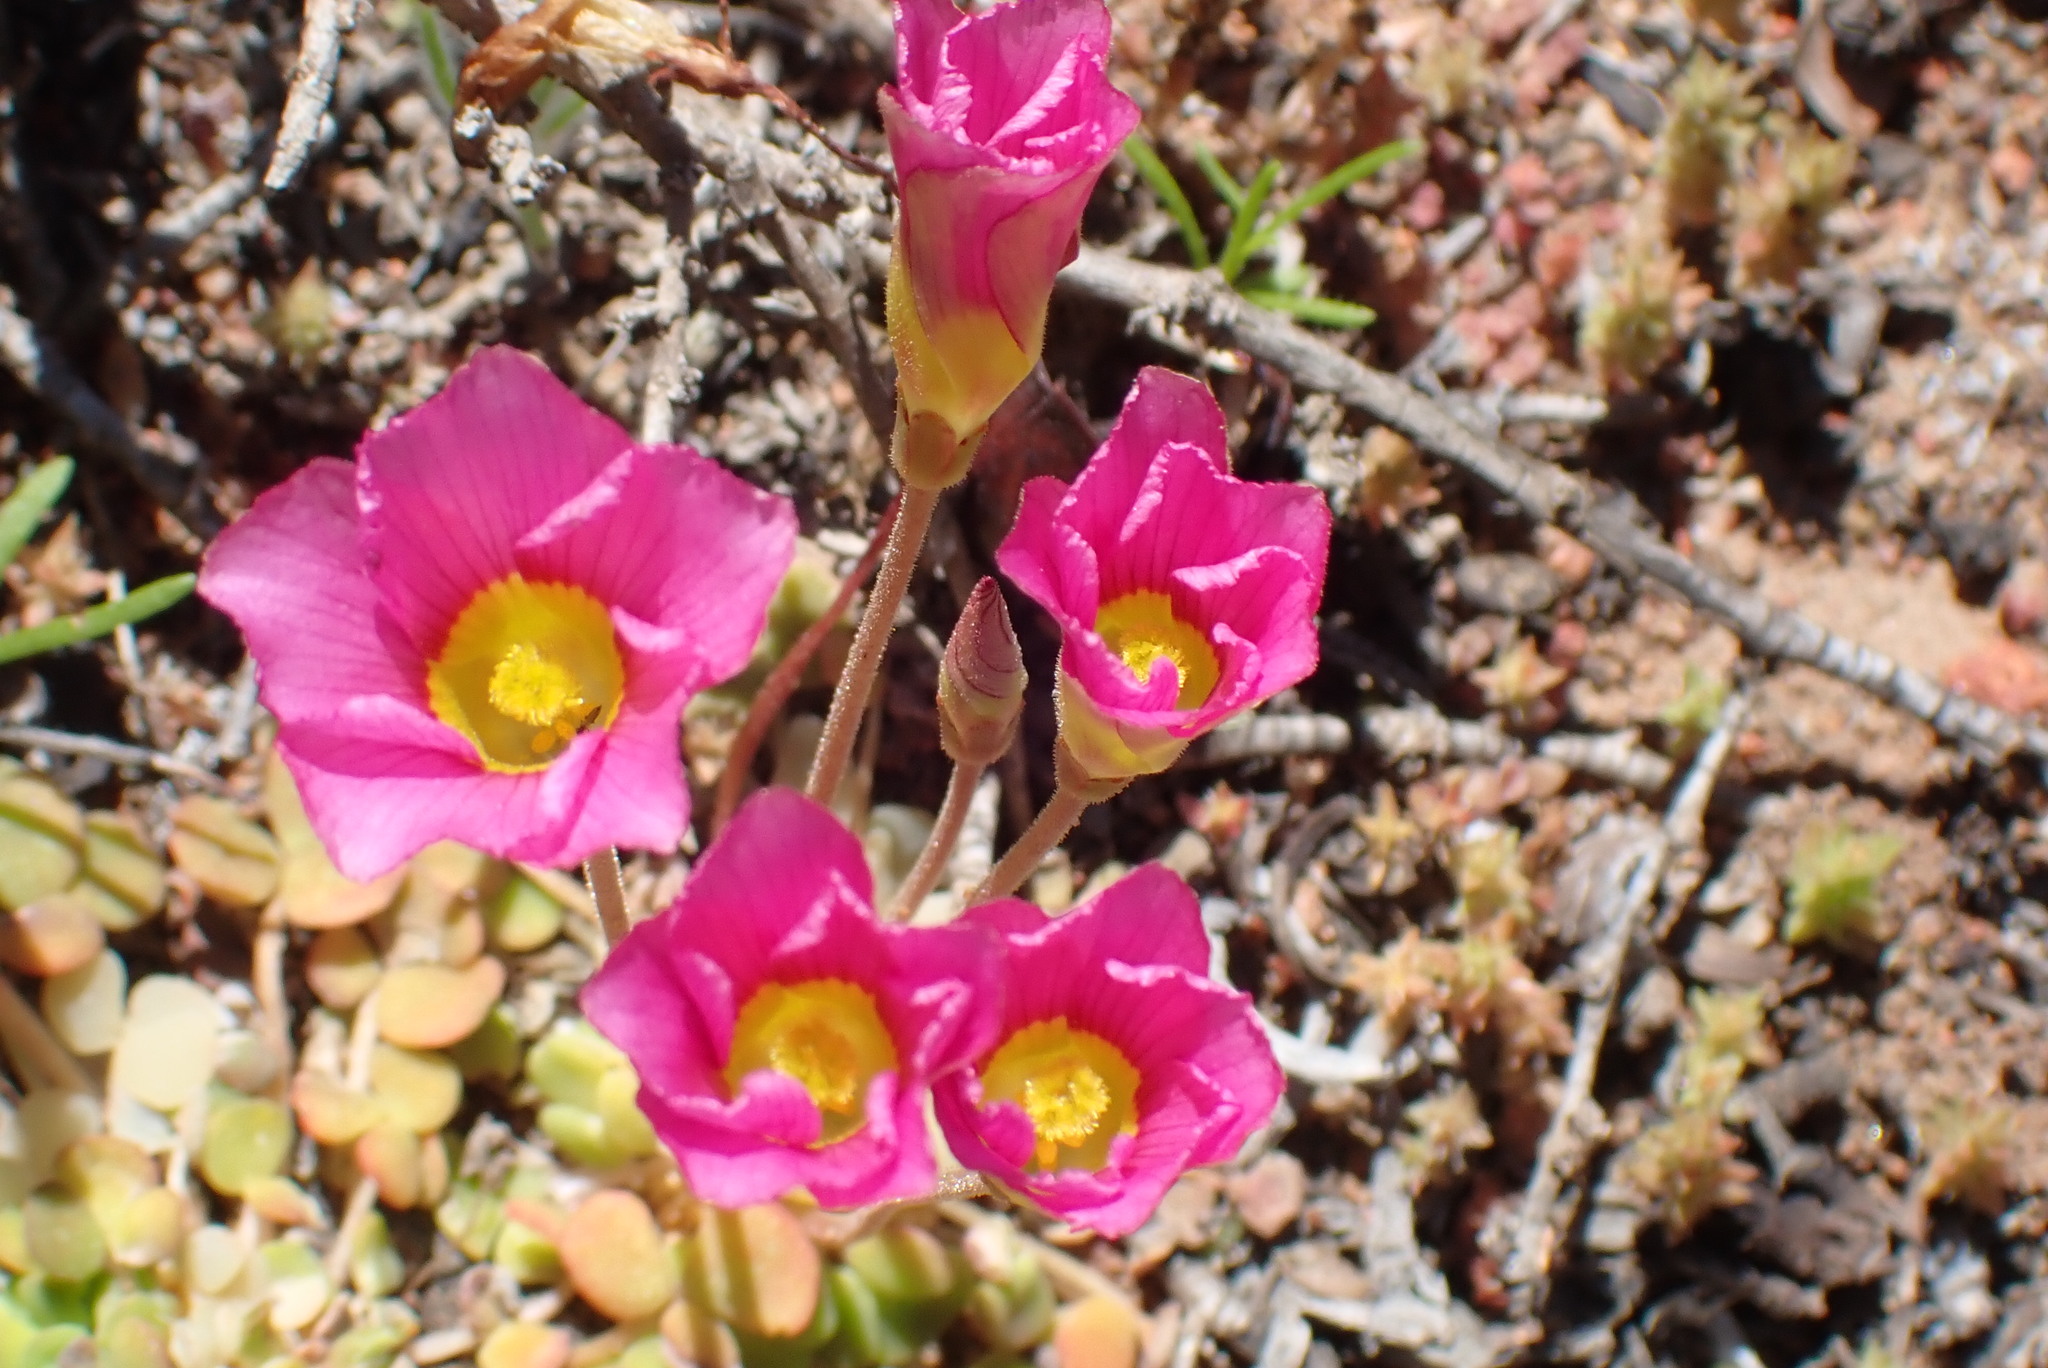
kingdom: Plantae
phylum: Tracheophyta
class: Magnoliopsida
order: Oxalidales
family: Oxalidaceae
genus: Oxalis
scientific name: Oxalis inaequalis
